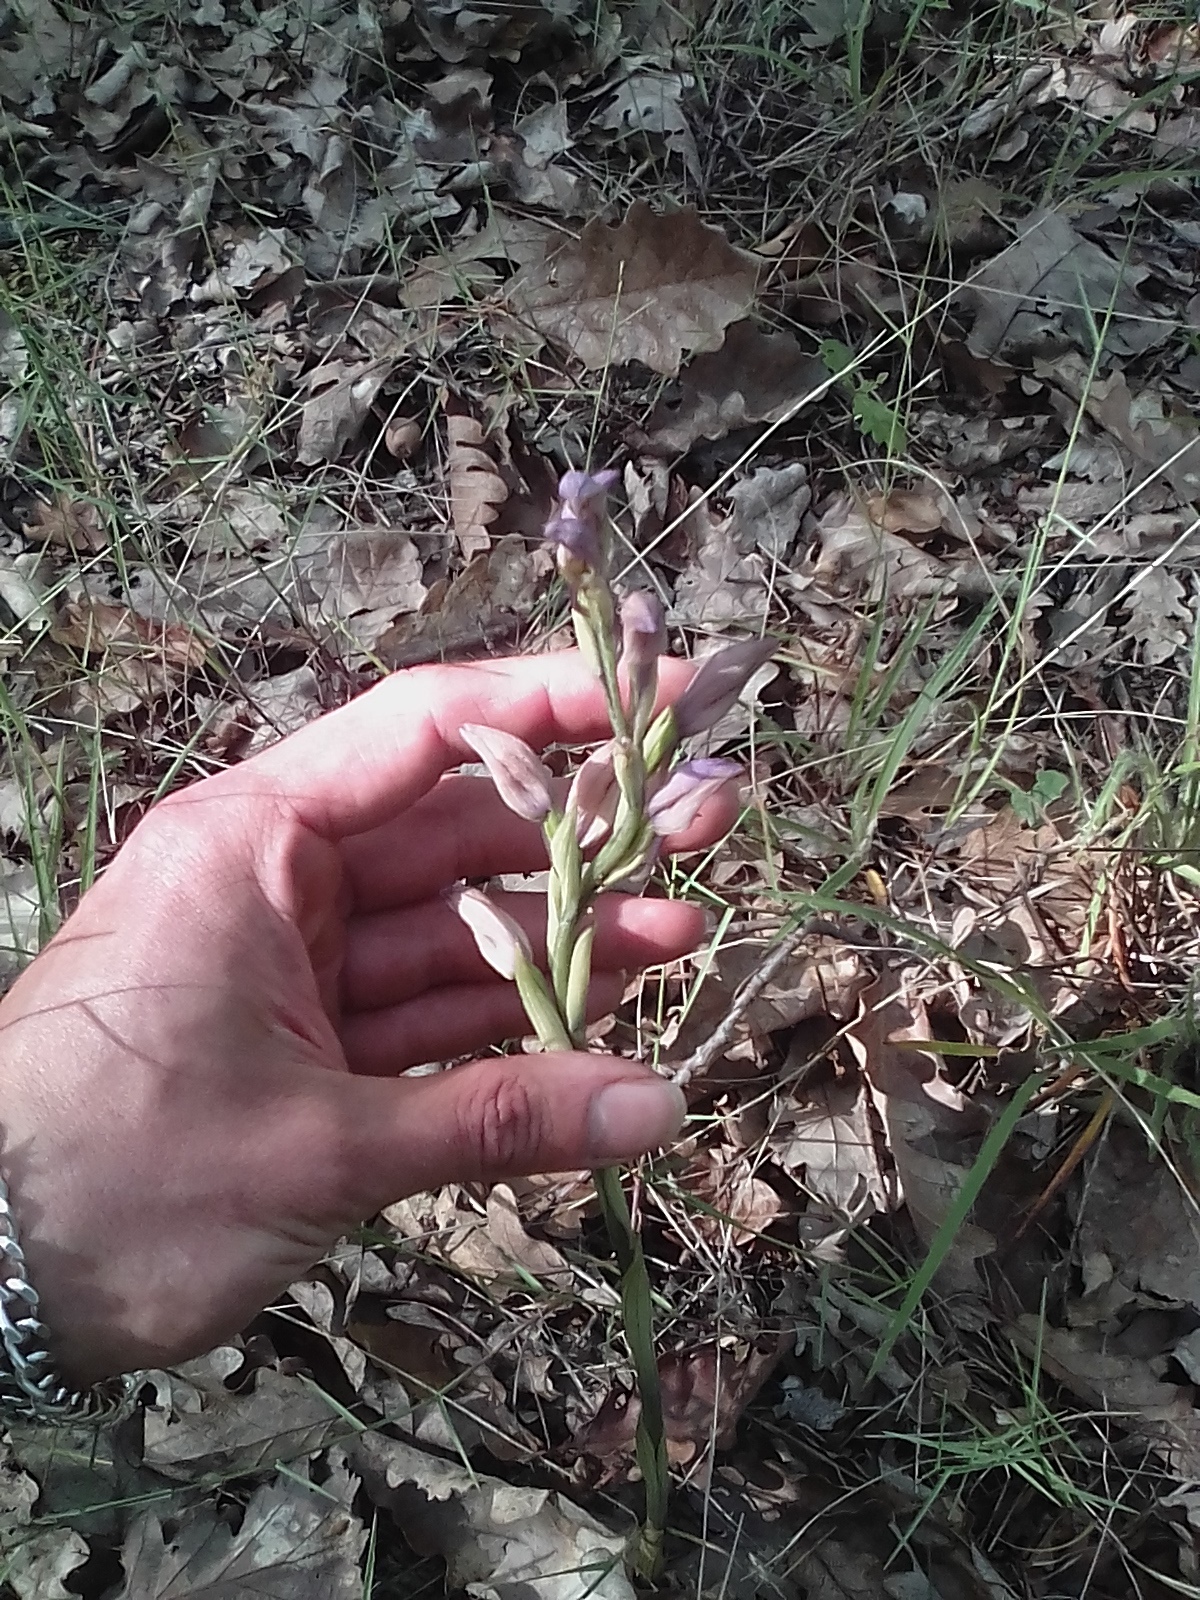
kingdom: Plantae
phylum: Tracheophyta
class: Liliopsida
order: Asparagales
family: Orchidaceae
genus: Limodorum
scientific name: Limodorum abortivum
